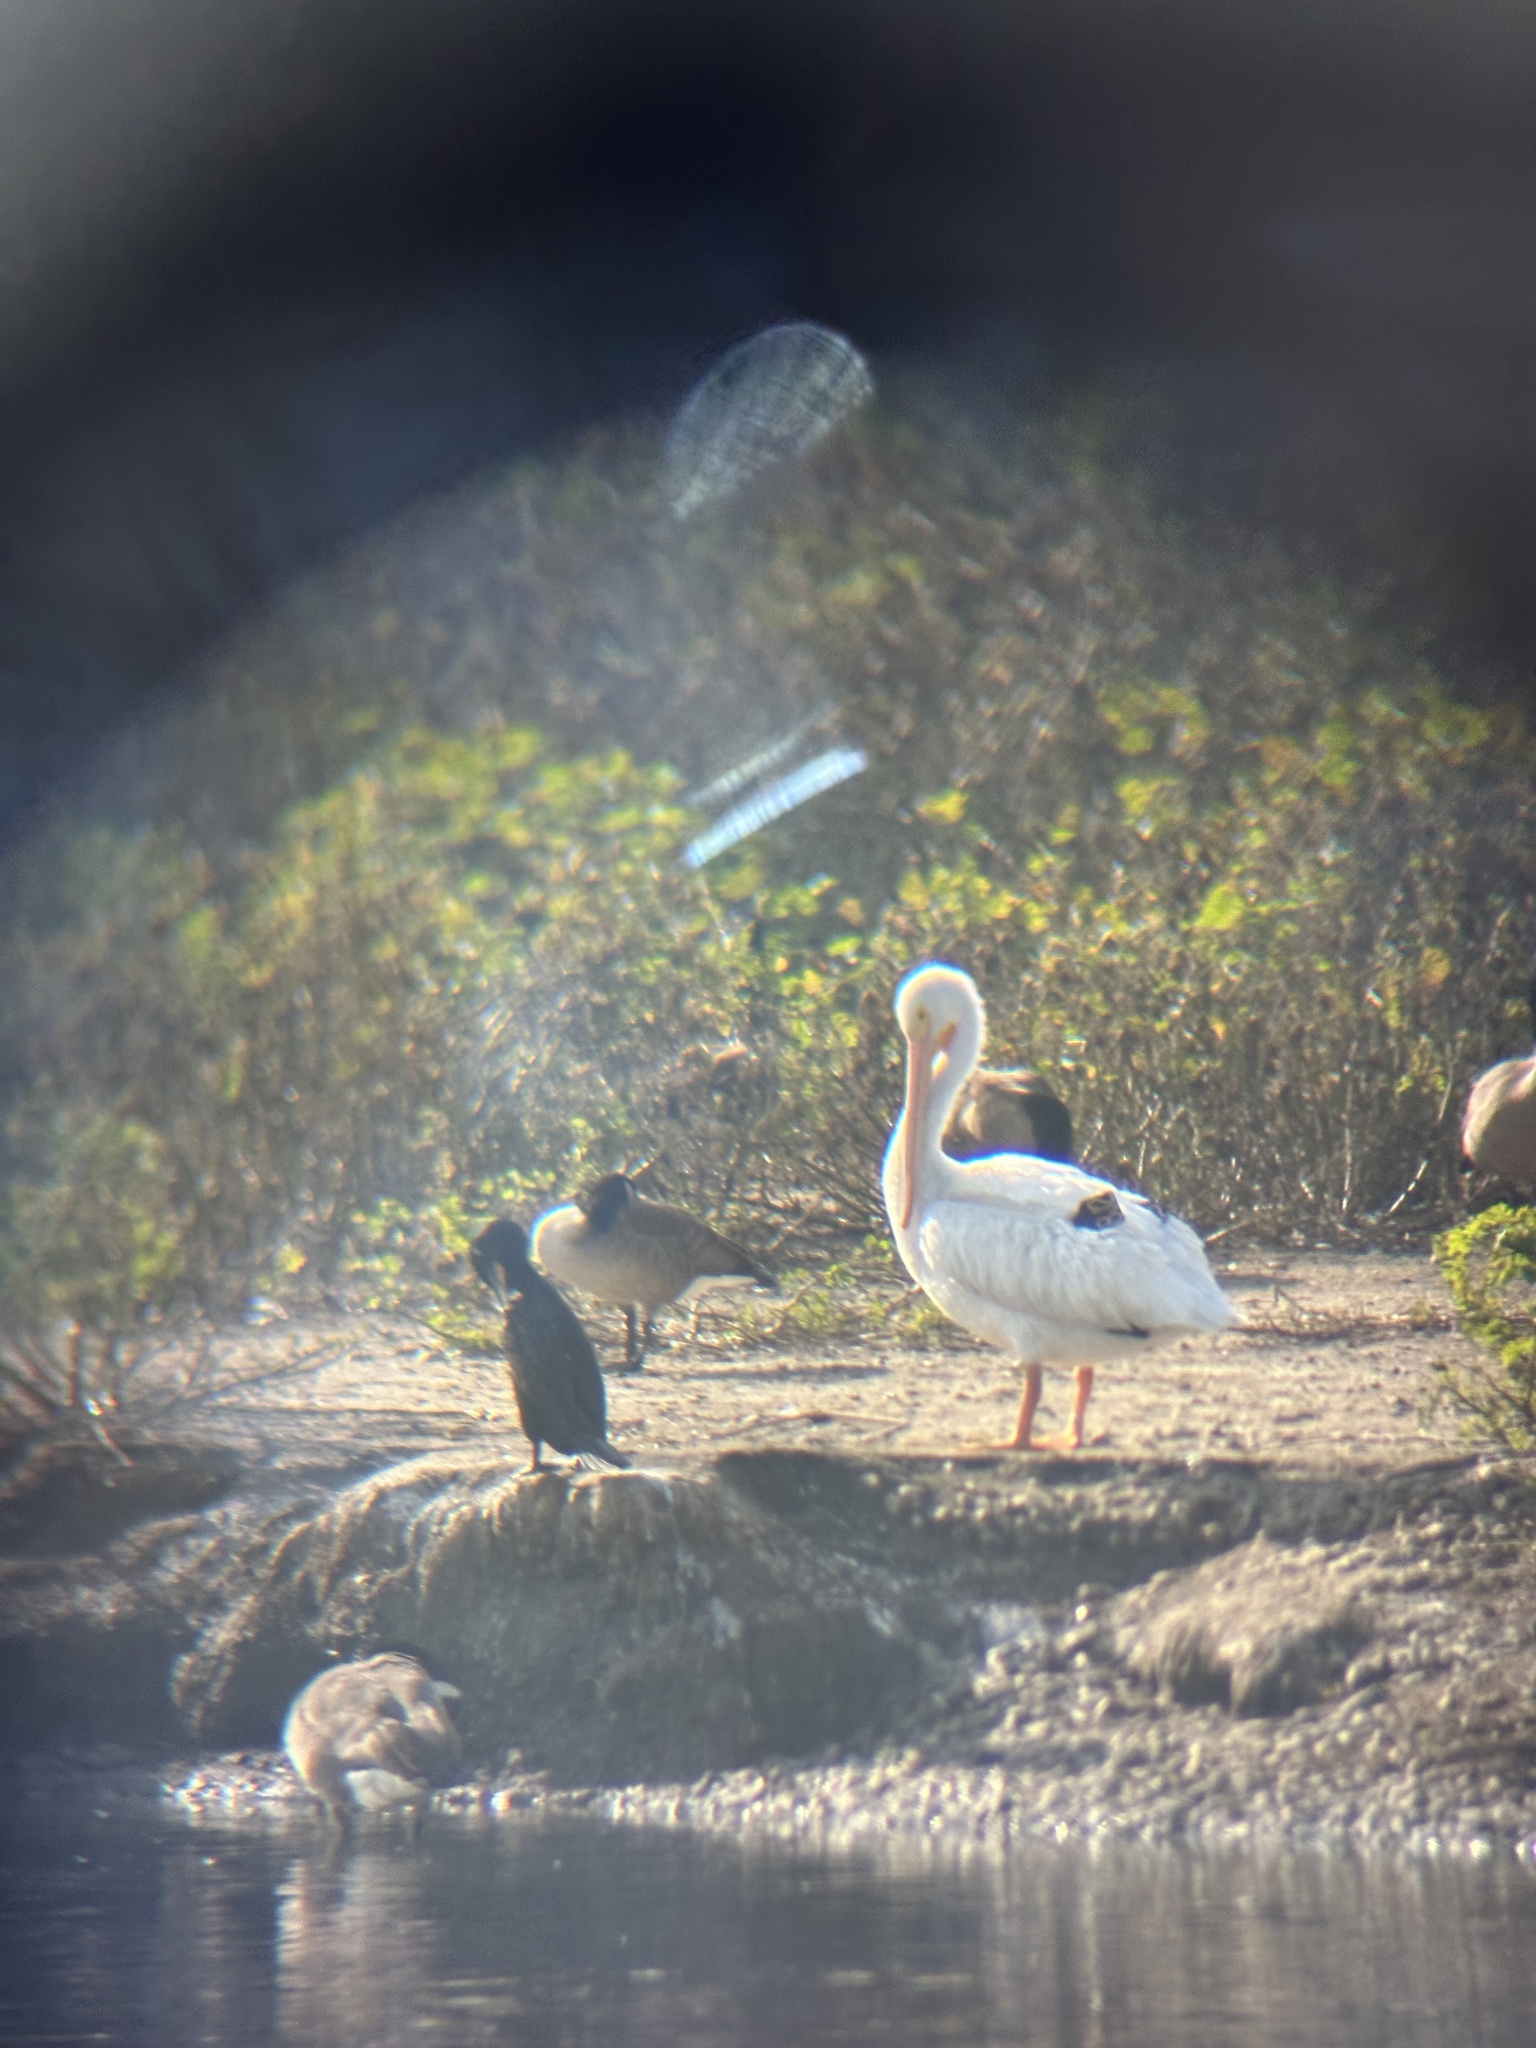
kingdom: Animalia
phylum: Chordata
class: Aves
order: Pelecaniformes
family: Pelecanidae
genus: Pelecanus
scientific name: Pelecanus erythrorhynchos
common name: American white pelican
